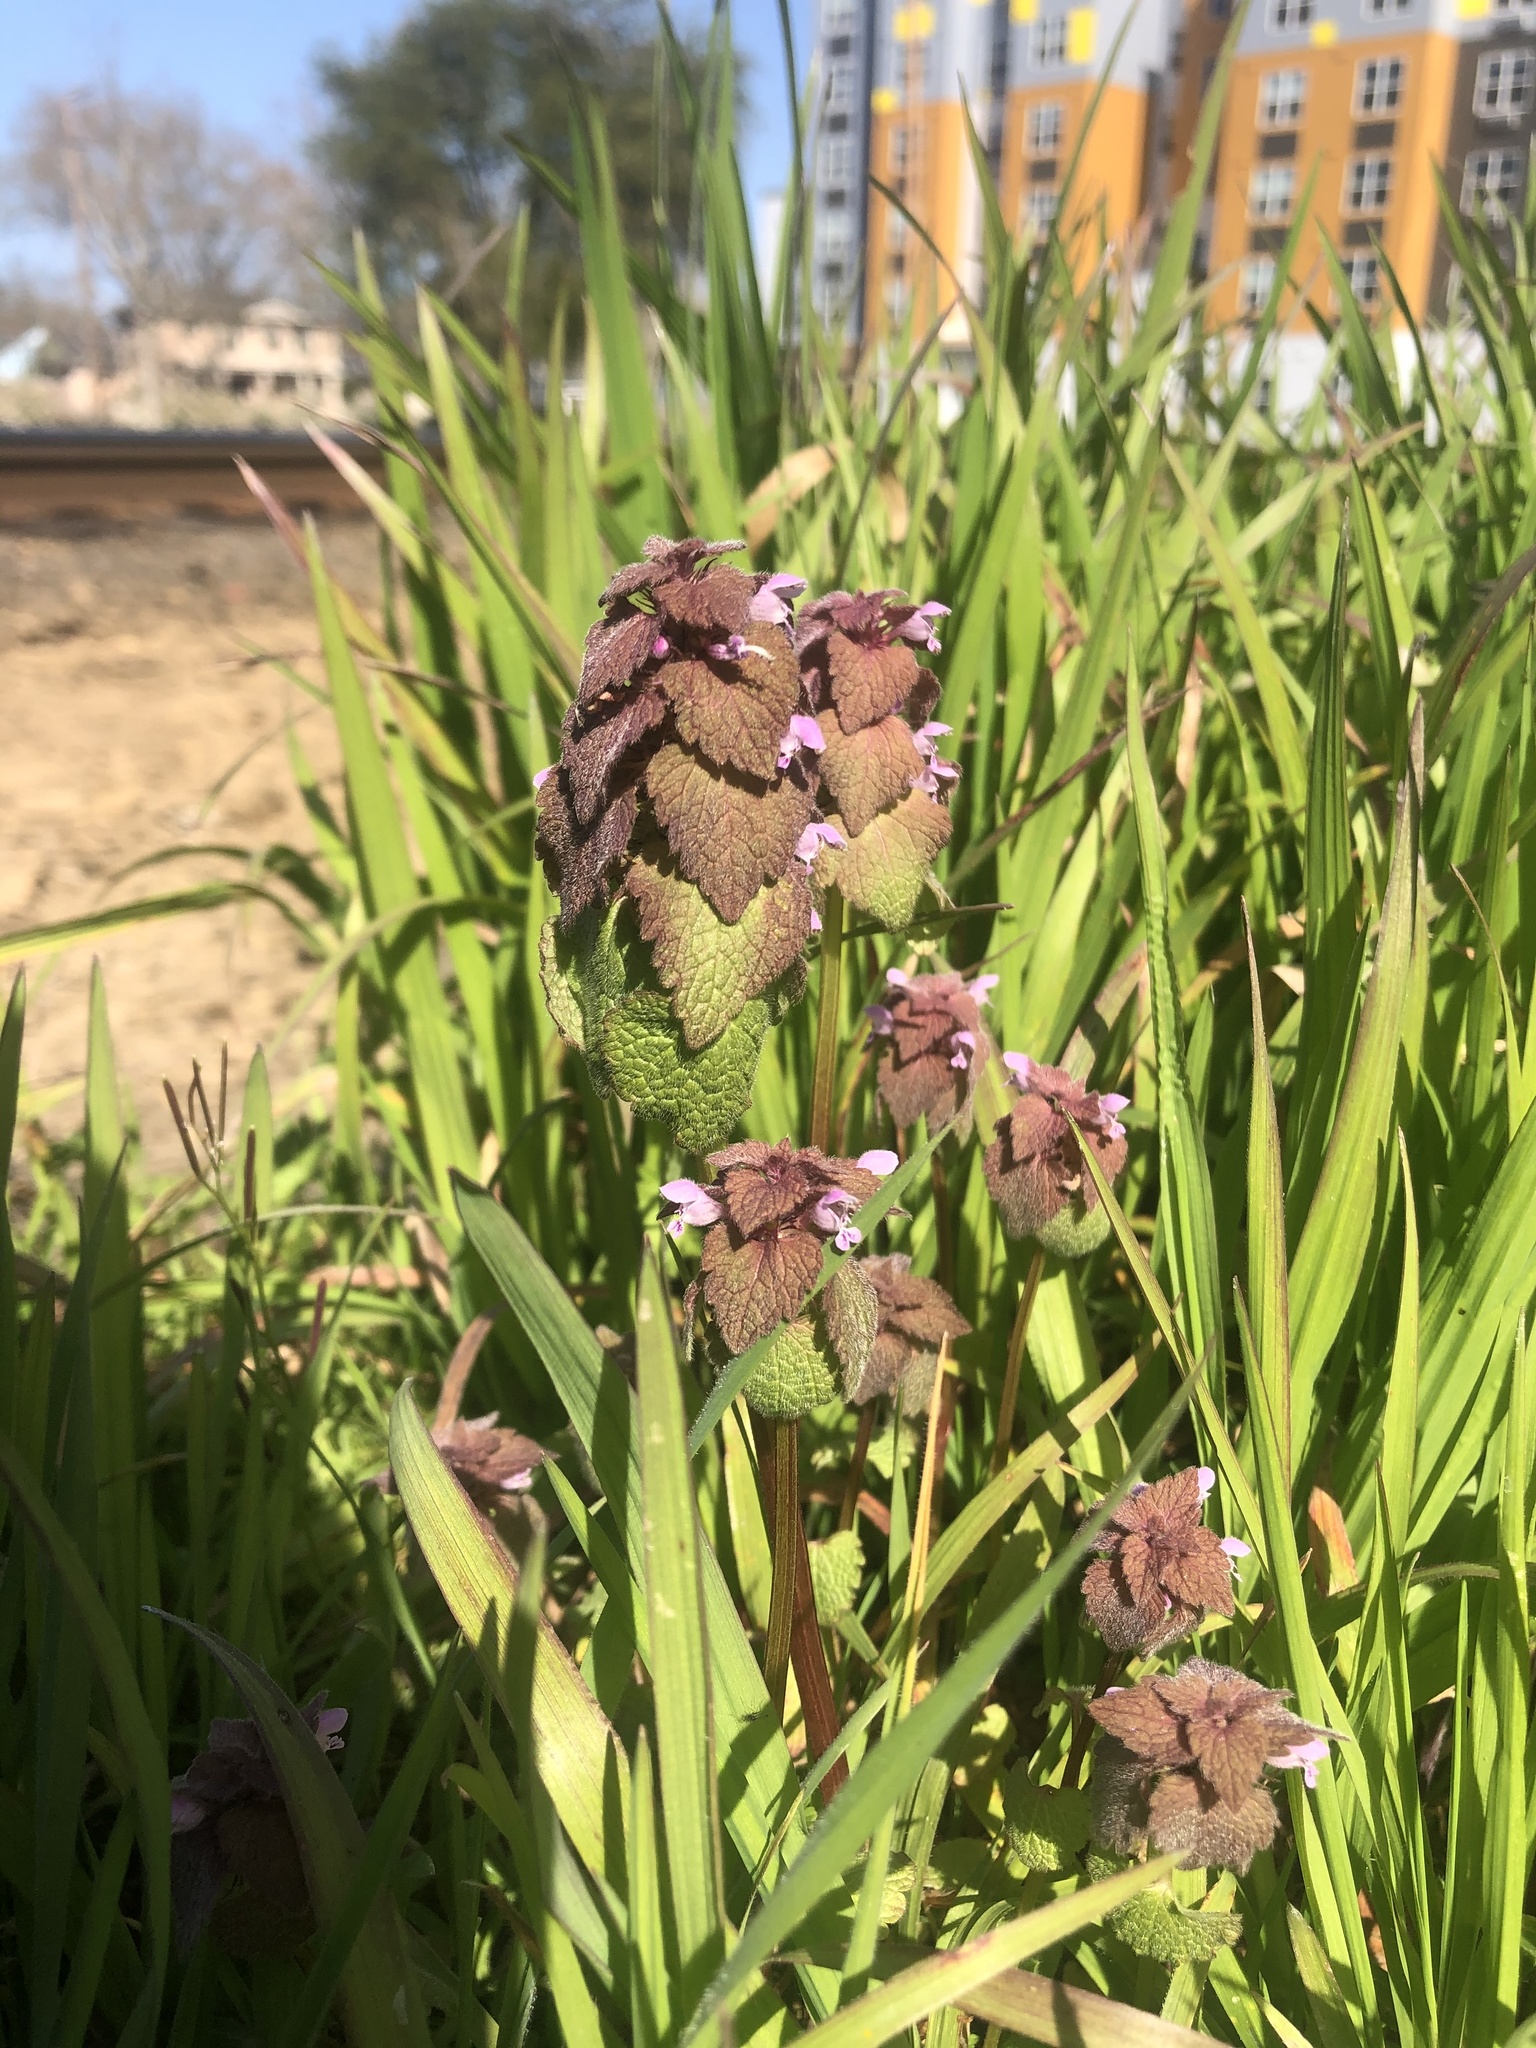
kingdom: Plantae
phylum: Tracheophyta
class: Magnoliopsida
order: Lamiales
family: Lamiaceae
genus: Lamium
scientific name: Lamium purpureum
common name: Red dead-nettle
